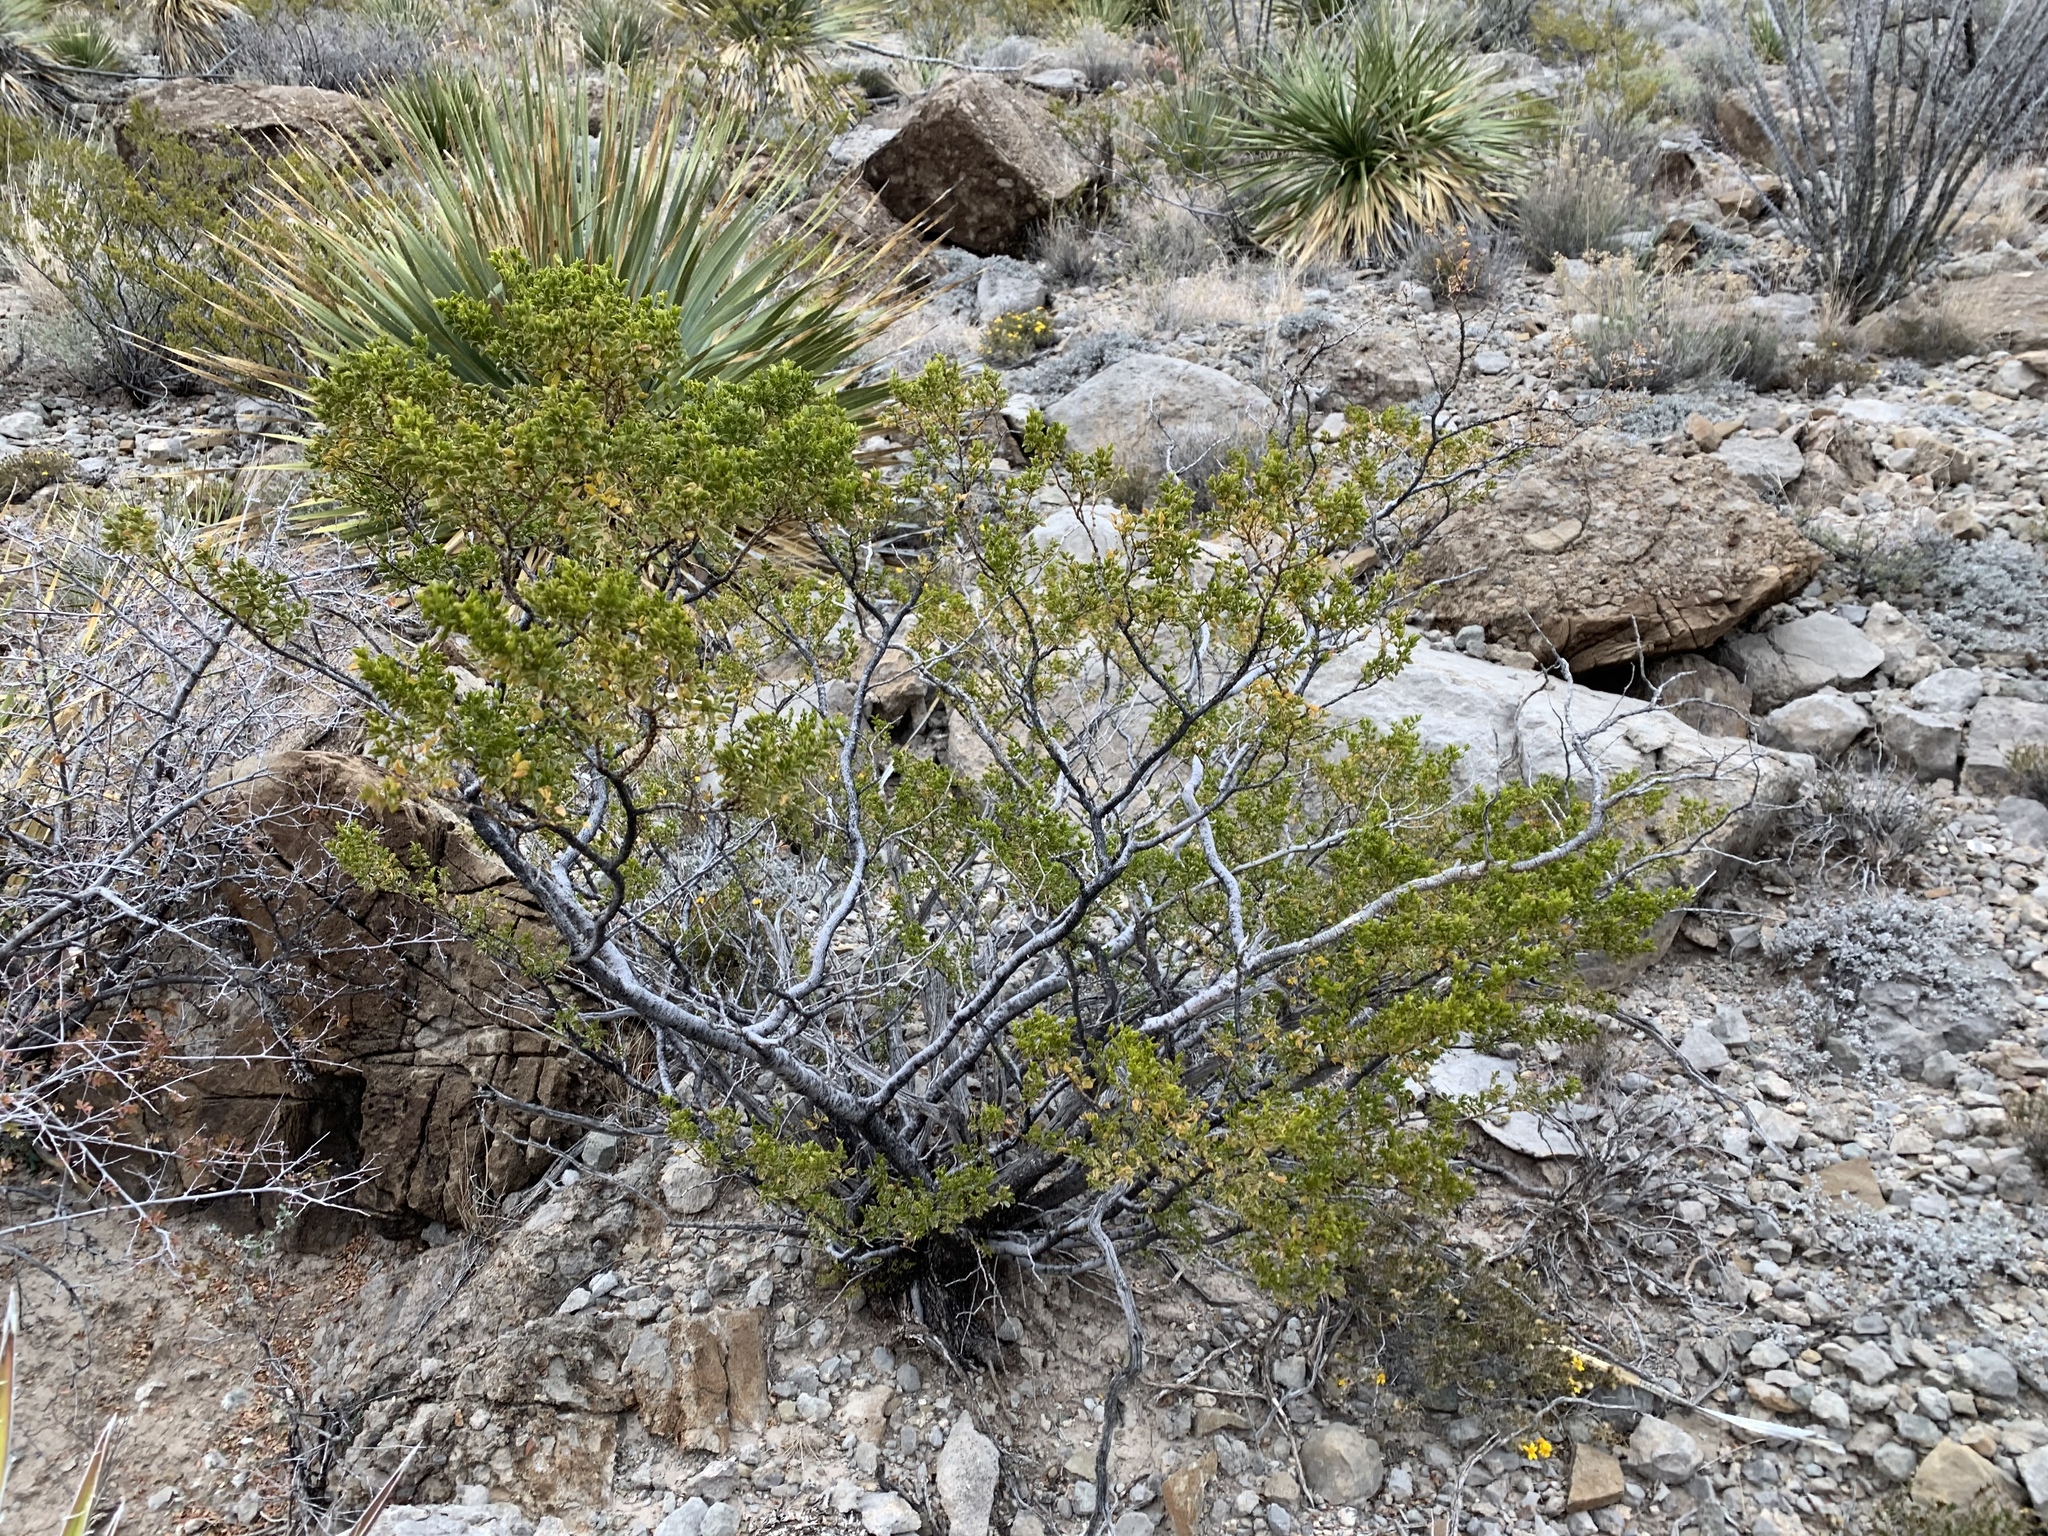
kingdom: Plantae
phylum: Tracheophyta
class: Magnoliopsida
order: Zygophyllales
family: Zygophyllaceae
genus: Larrea
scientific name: Larrea tridentata
